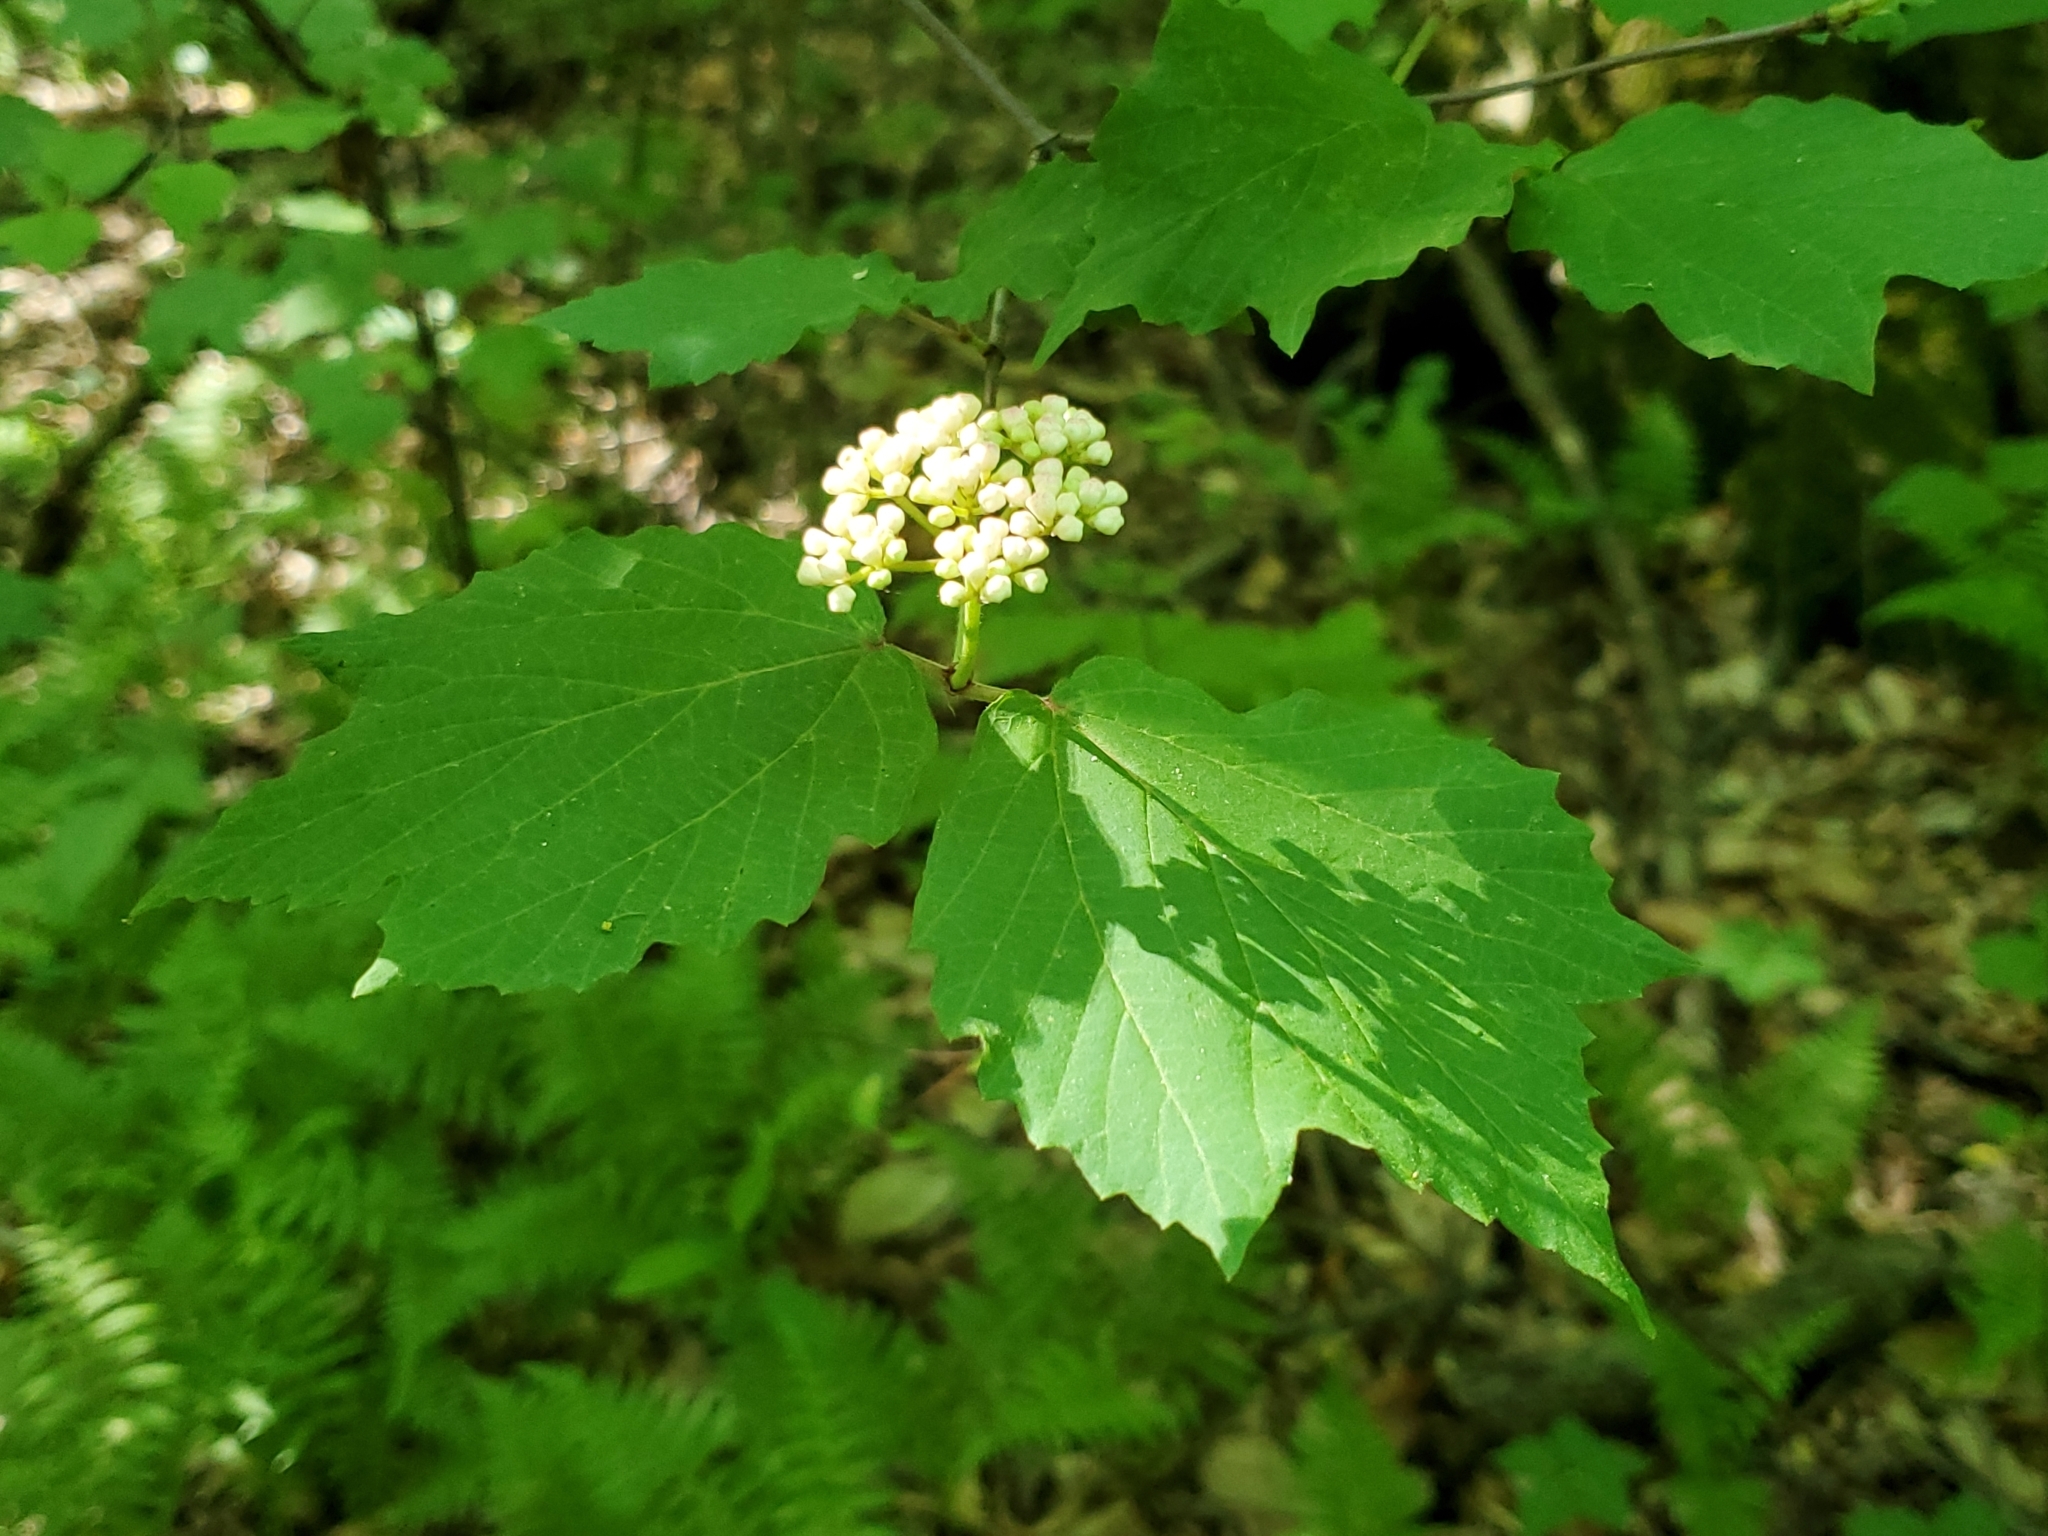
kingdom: Plantae
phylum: Tracheophyta
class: Magnoliopsida
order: Dipsacales
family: Viburnaceae
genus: Viburnum
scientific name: Viburnum acerifolium
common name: Dockmackie
